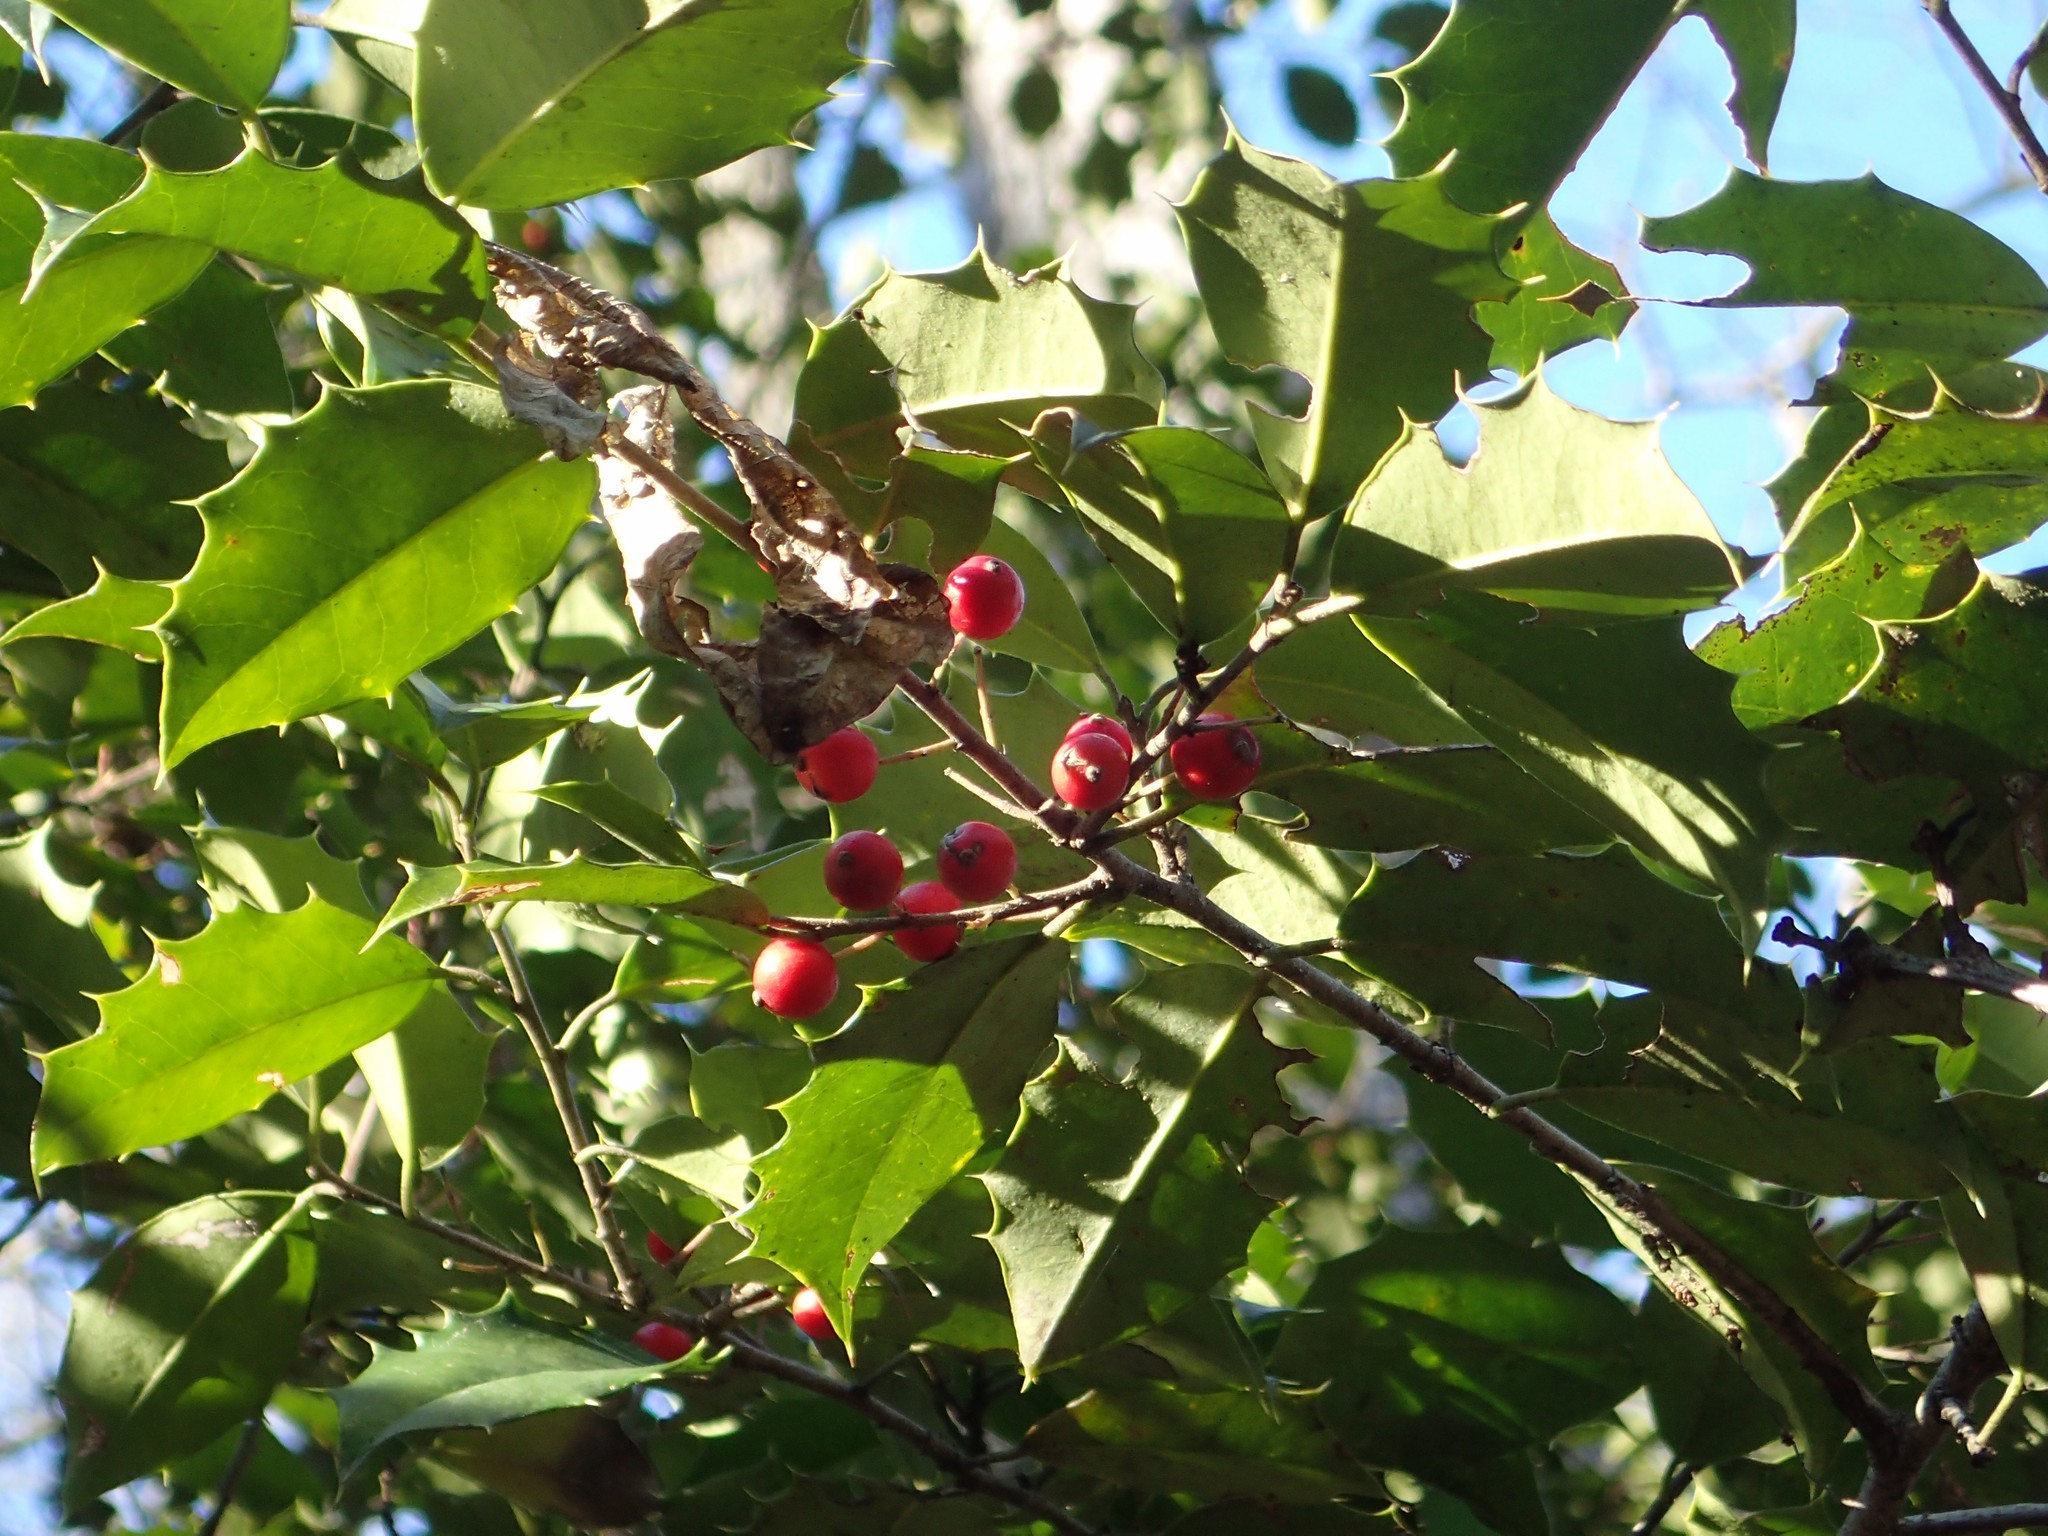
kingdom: Plantae
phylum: Tracheophyta
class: Magnoliopsida
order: Aquifoliales
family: Aquifoliaceae
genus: Ilex
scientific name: Ilex opaca
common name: American holly
